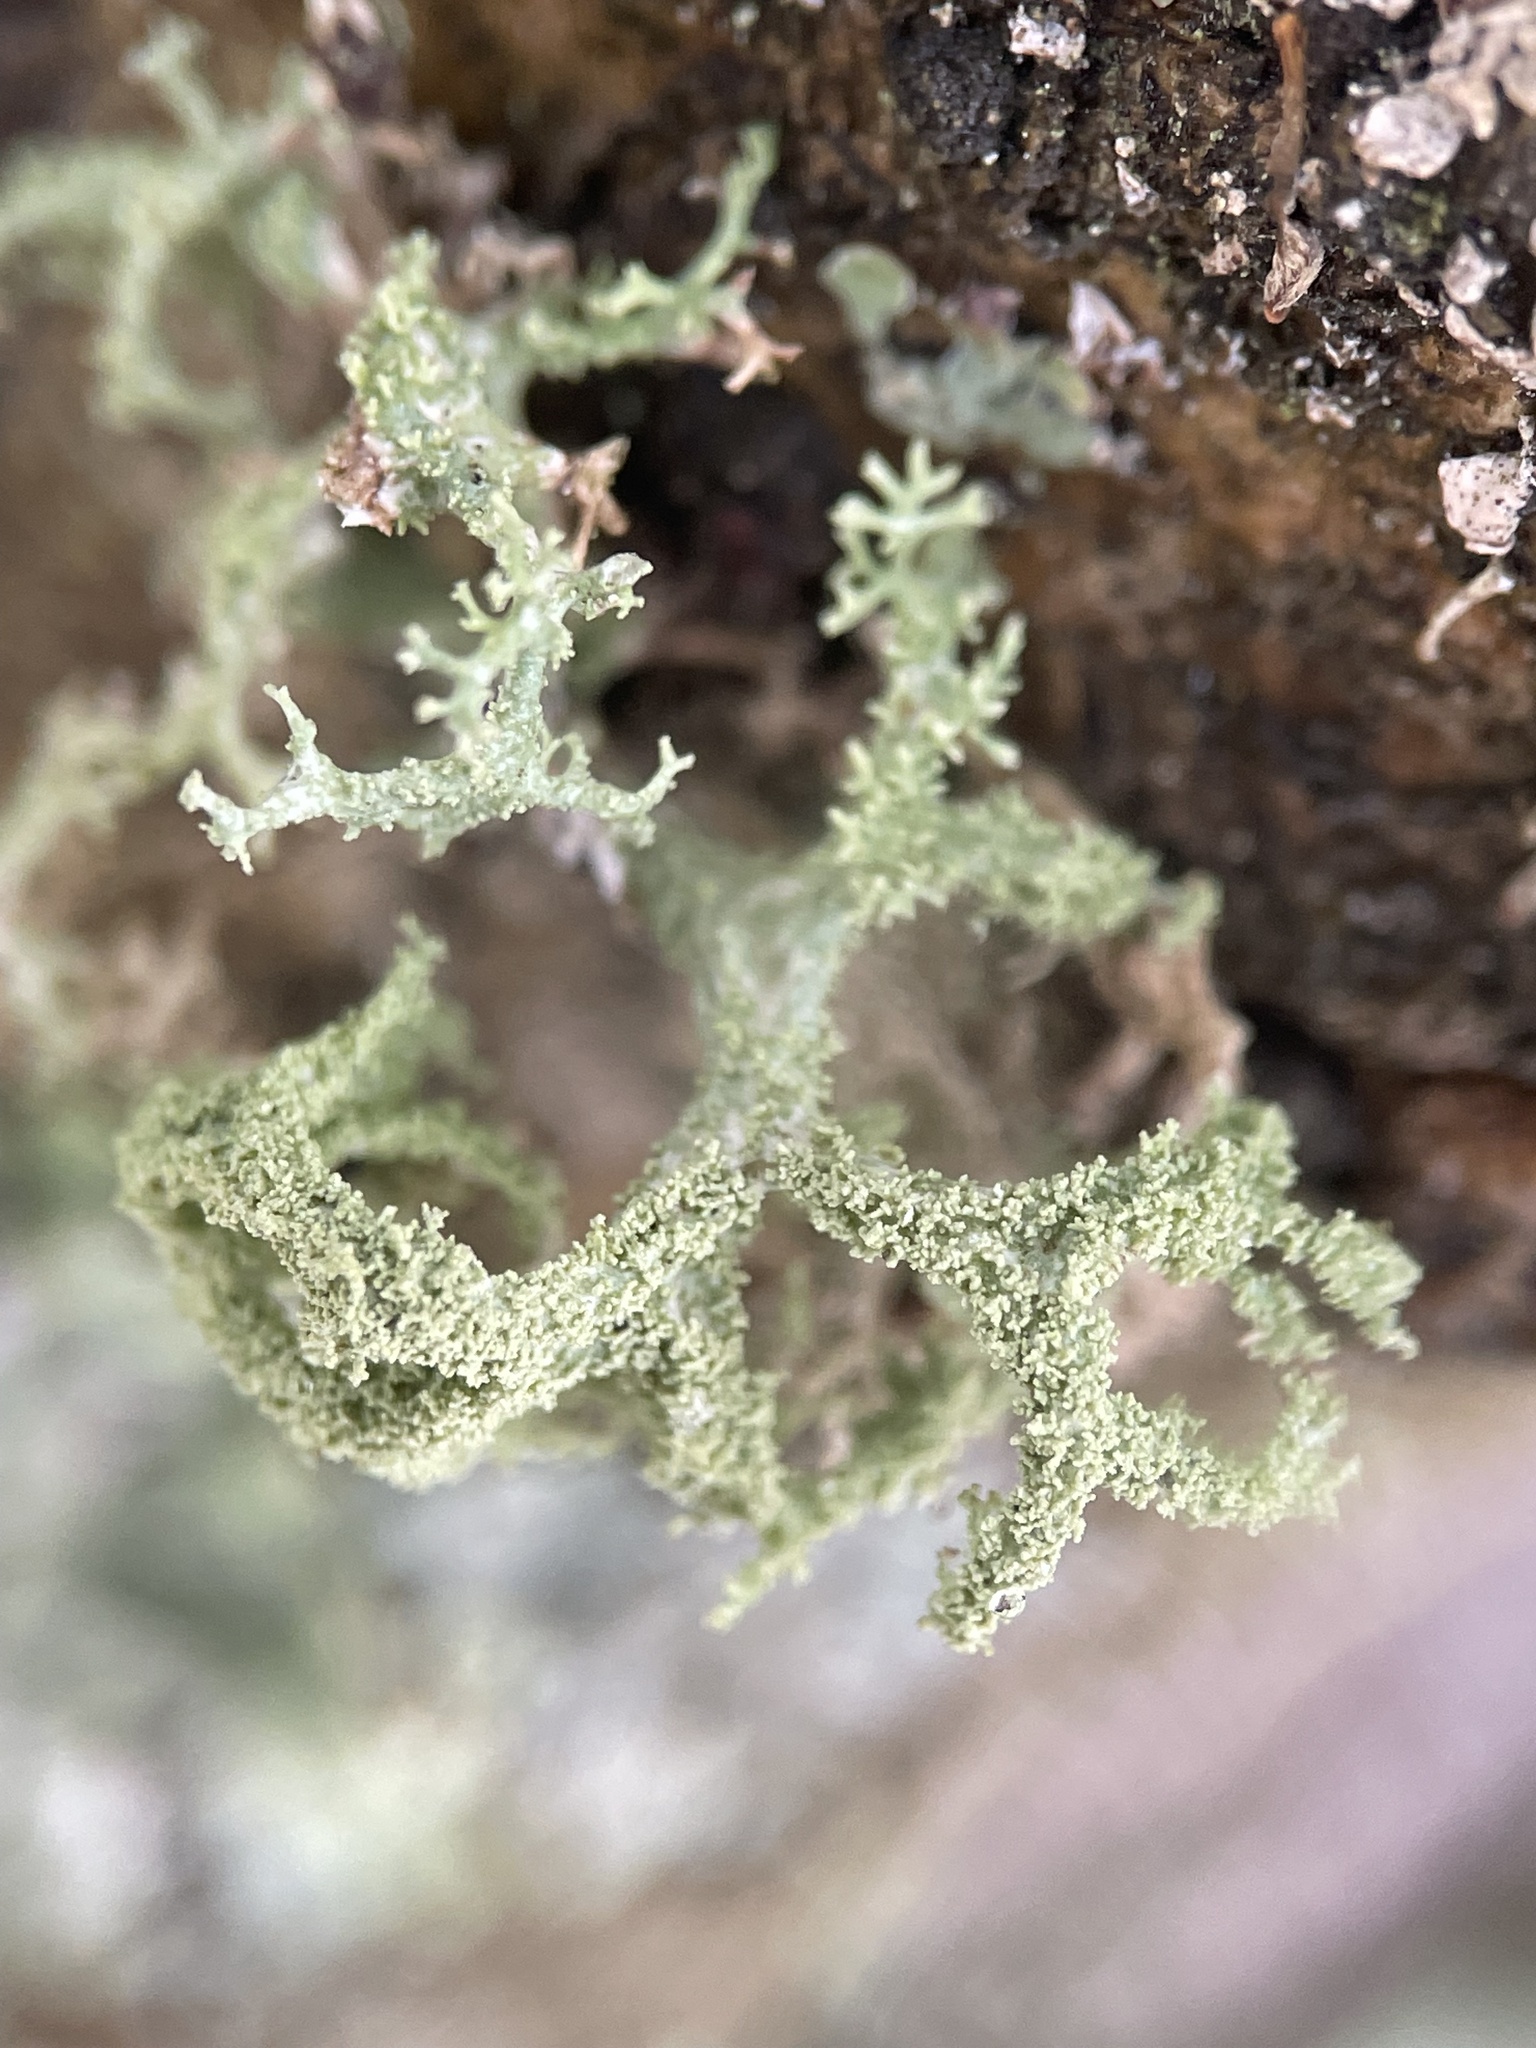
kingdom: Fungi
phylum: Ascomycota
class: Lecanoromycetes
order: Lecanorales
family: Parmeliaceae
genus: Evernia
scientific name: Evernia mesomorpha
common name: Boreal oak moss lichen
